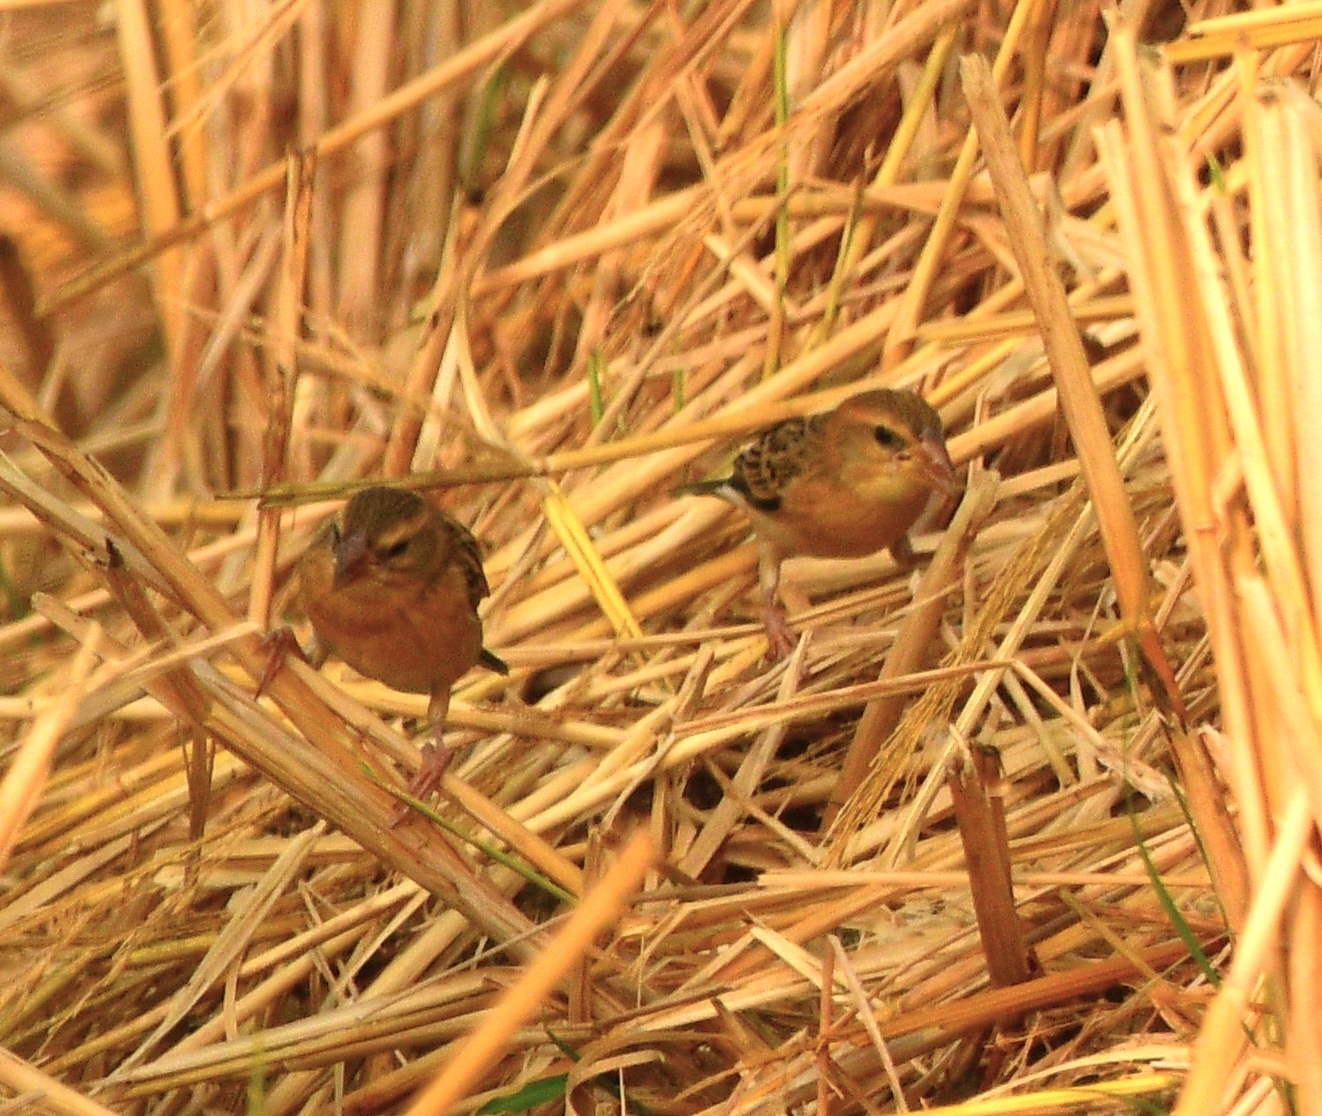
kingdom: Animalia
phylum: Chordata
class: Aves
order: Passeriformes
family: Ploceidae
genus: Ploceus
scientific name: Ploceus philippinus
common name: Baya weaver
